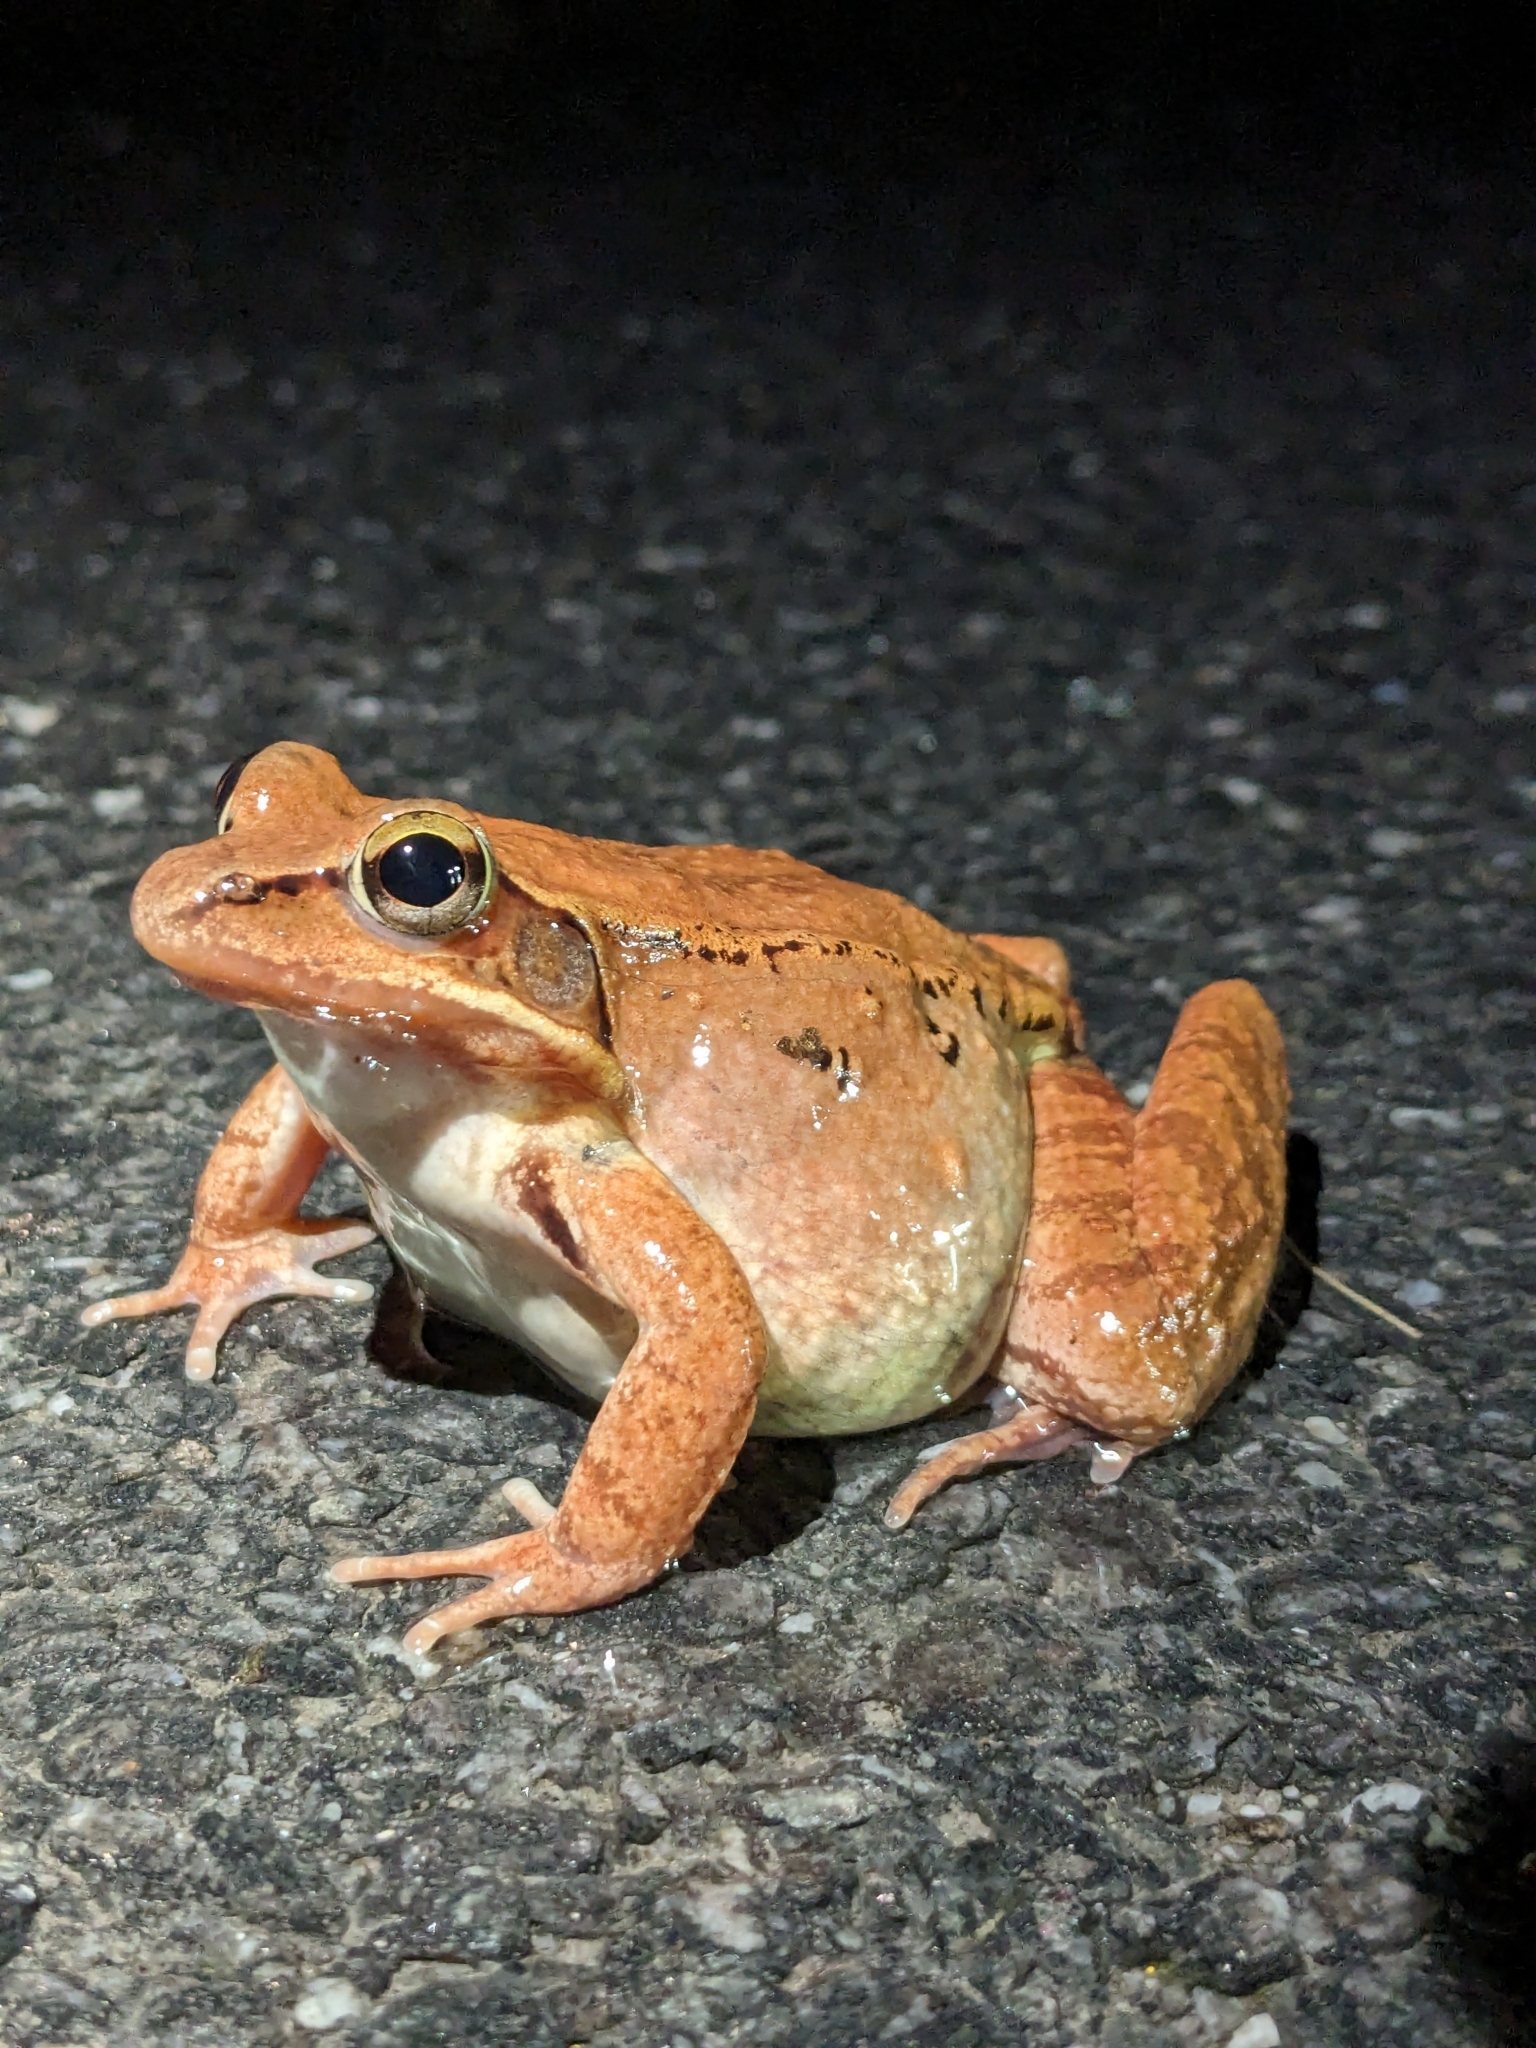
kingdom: Animalia
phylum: Chordata
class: Amphibia
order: Anura
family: Ranidae
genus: Lithobates
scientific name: Lithobates sylvaticus
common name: Wood frog
